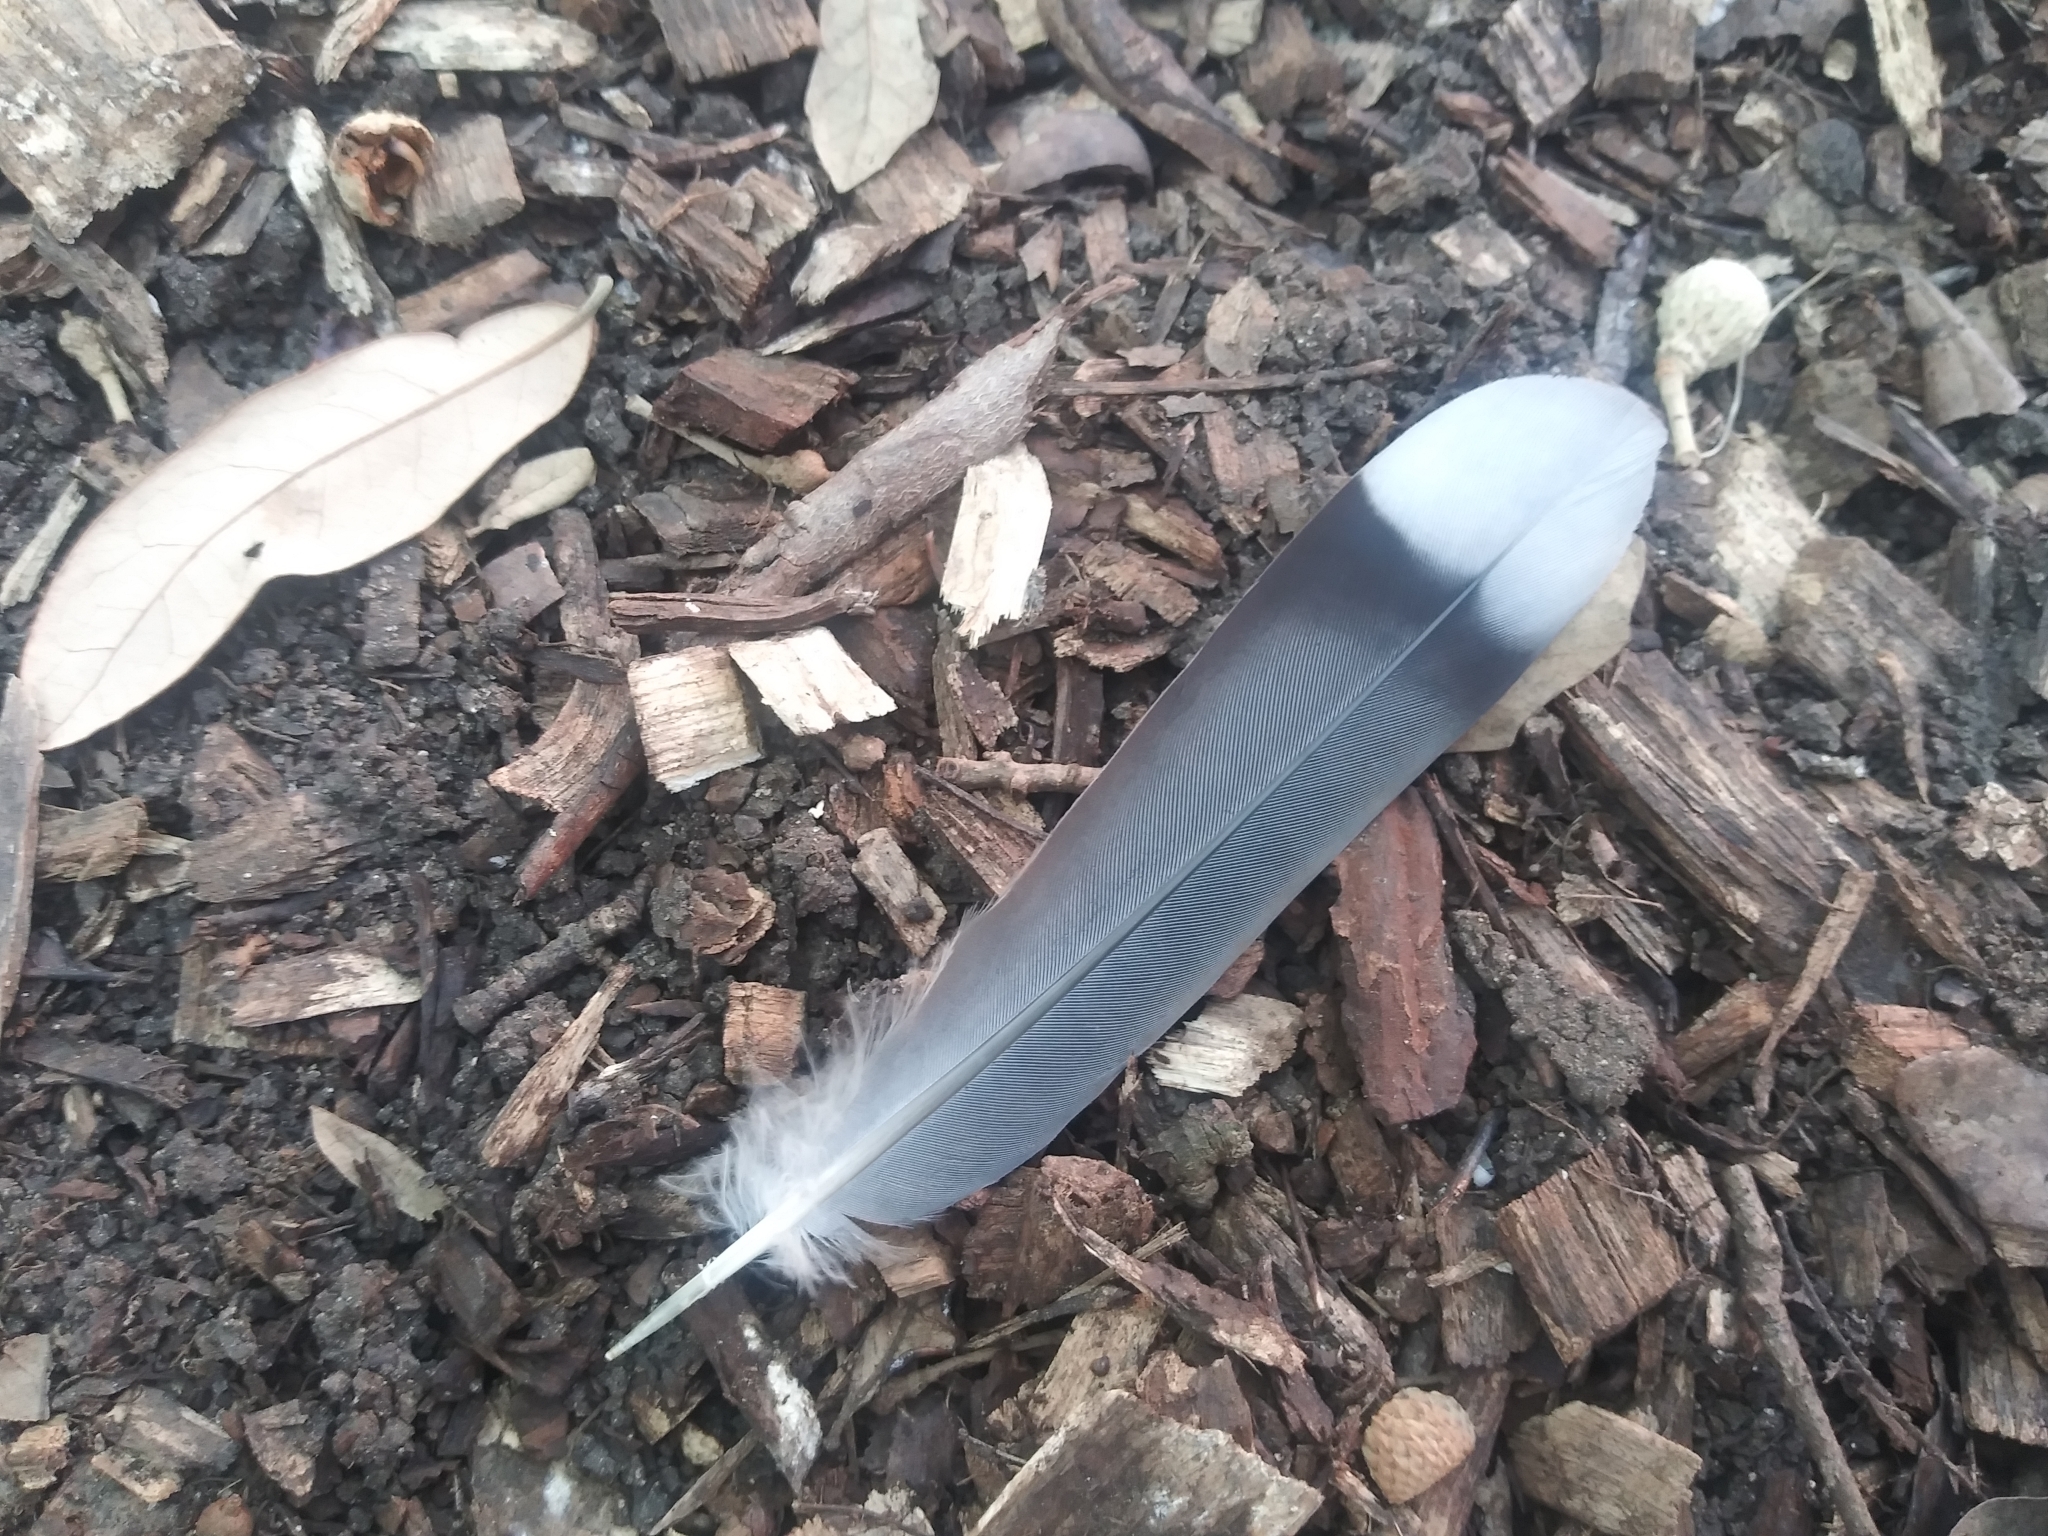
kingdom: Animalia
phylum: Chordata
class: Aves
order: Columbiformes
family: Columbidae
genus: Zenaida
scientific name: Zenaida asiatica
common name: White-winged dove
